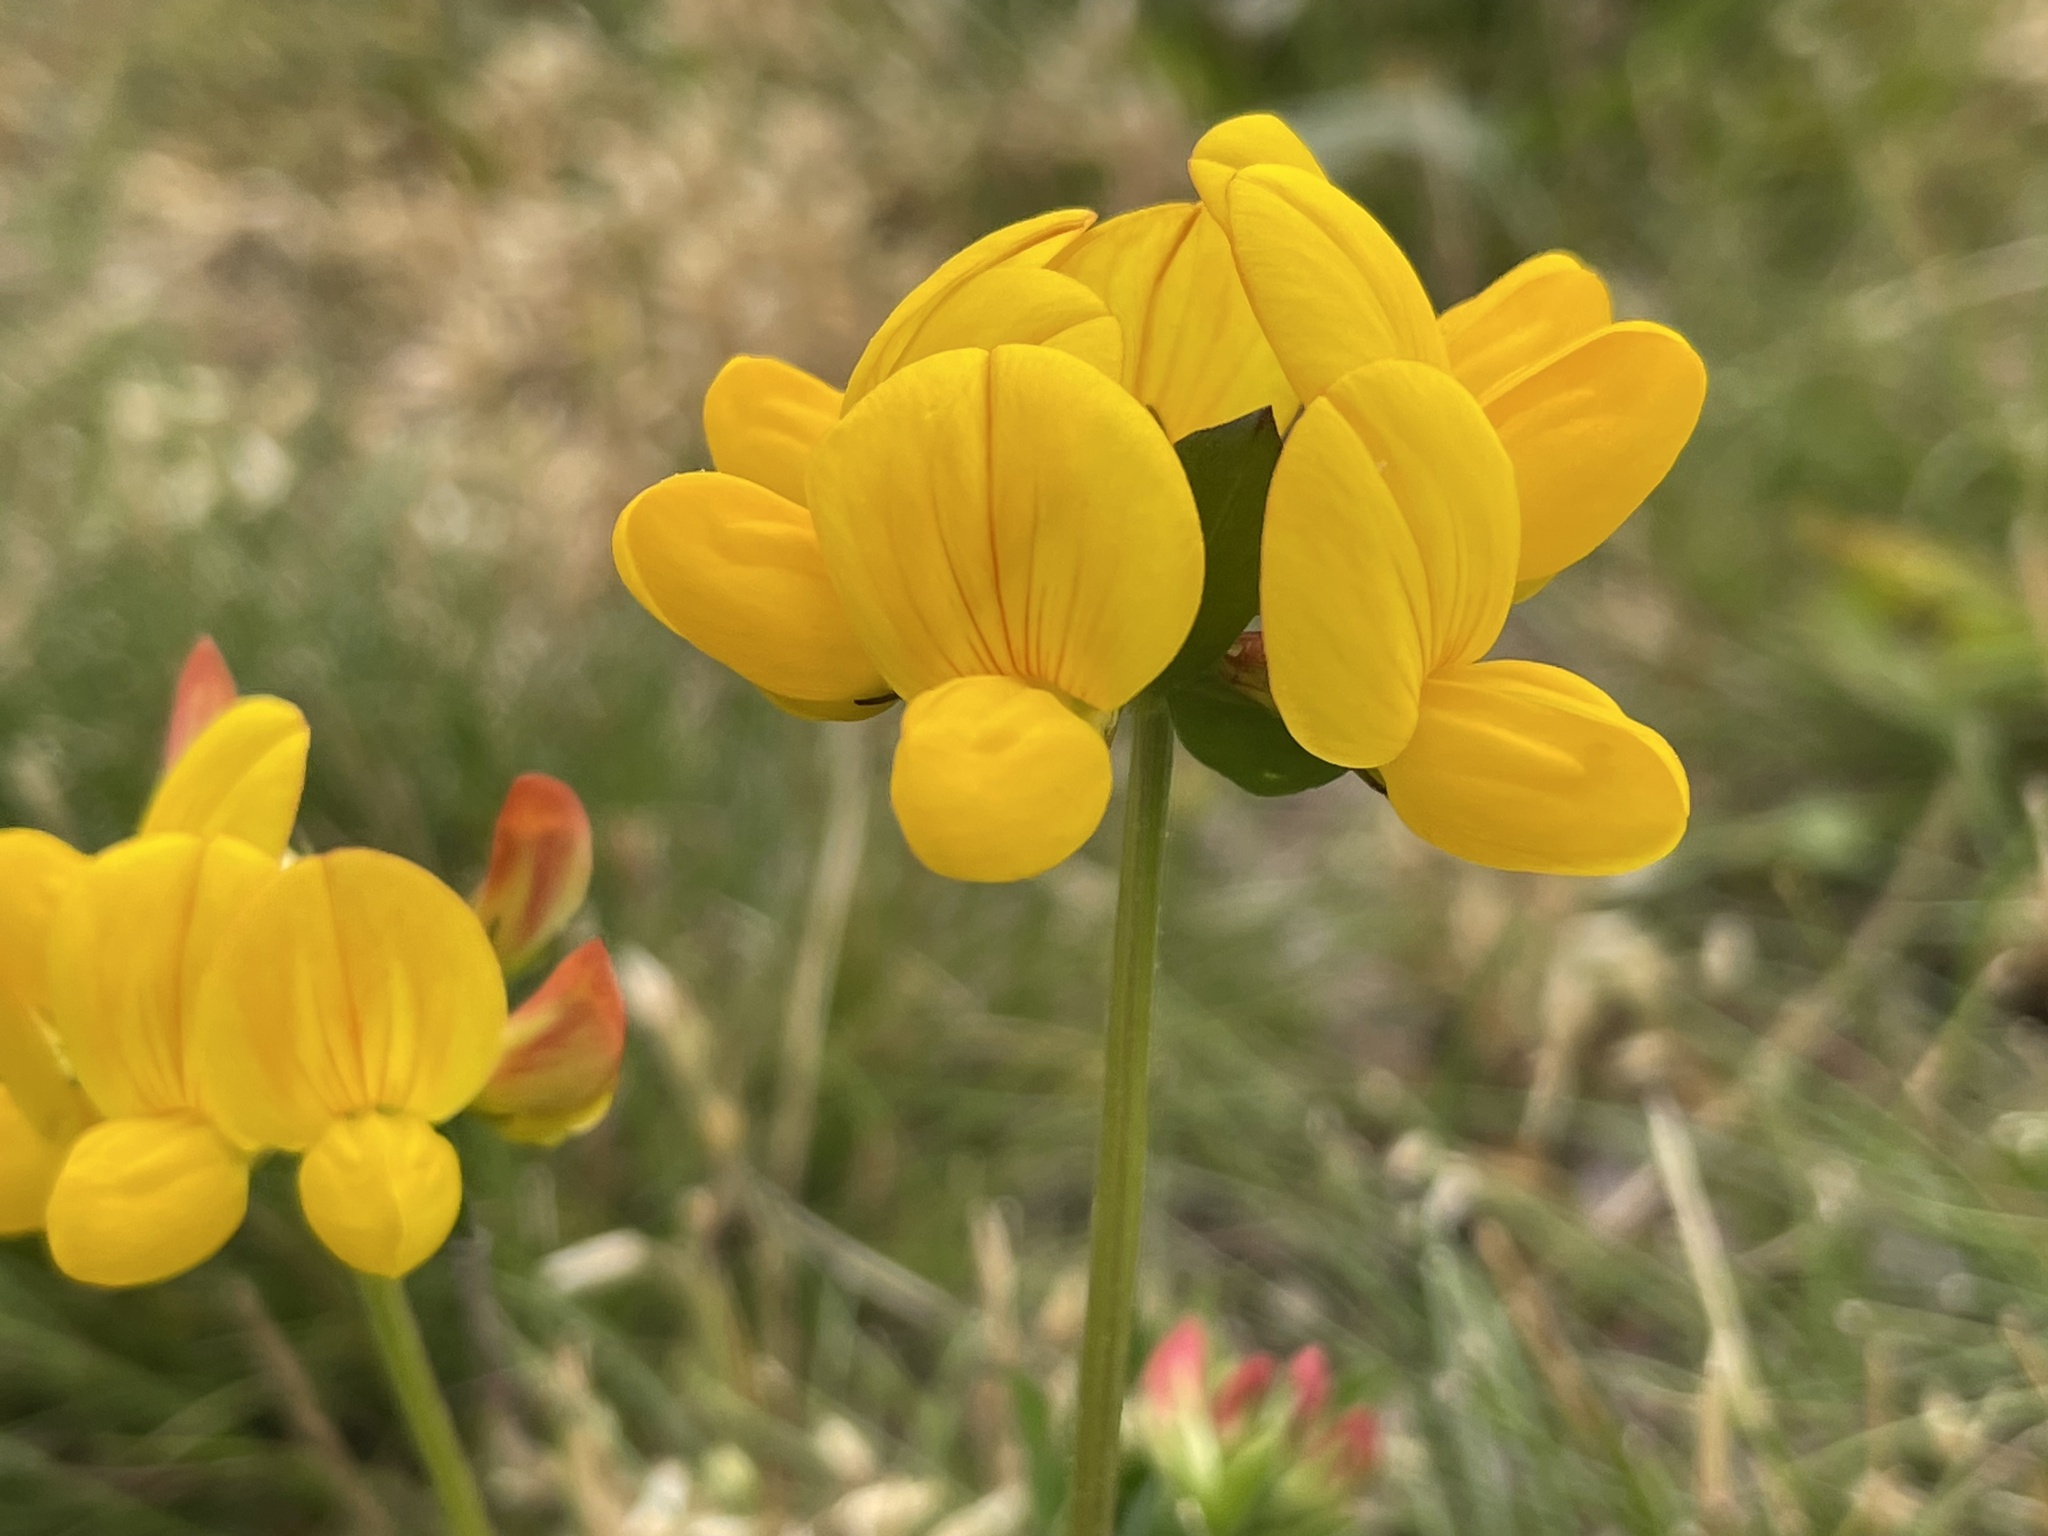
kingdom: Plantae
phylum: Tracheophyta
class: Magnoliopsida
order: Fabales
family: Fabaceae
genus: Lotus
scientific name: Lotus corniculatus
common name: Common bird's-foot-trefoil
